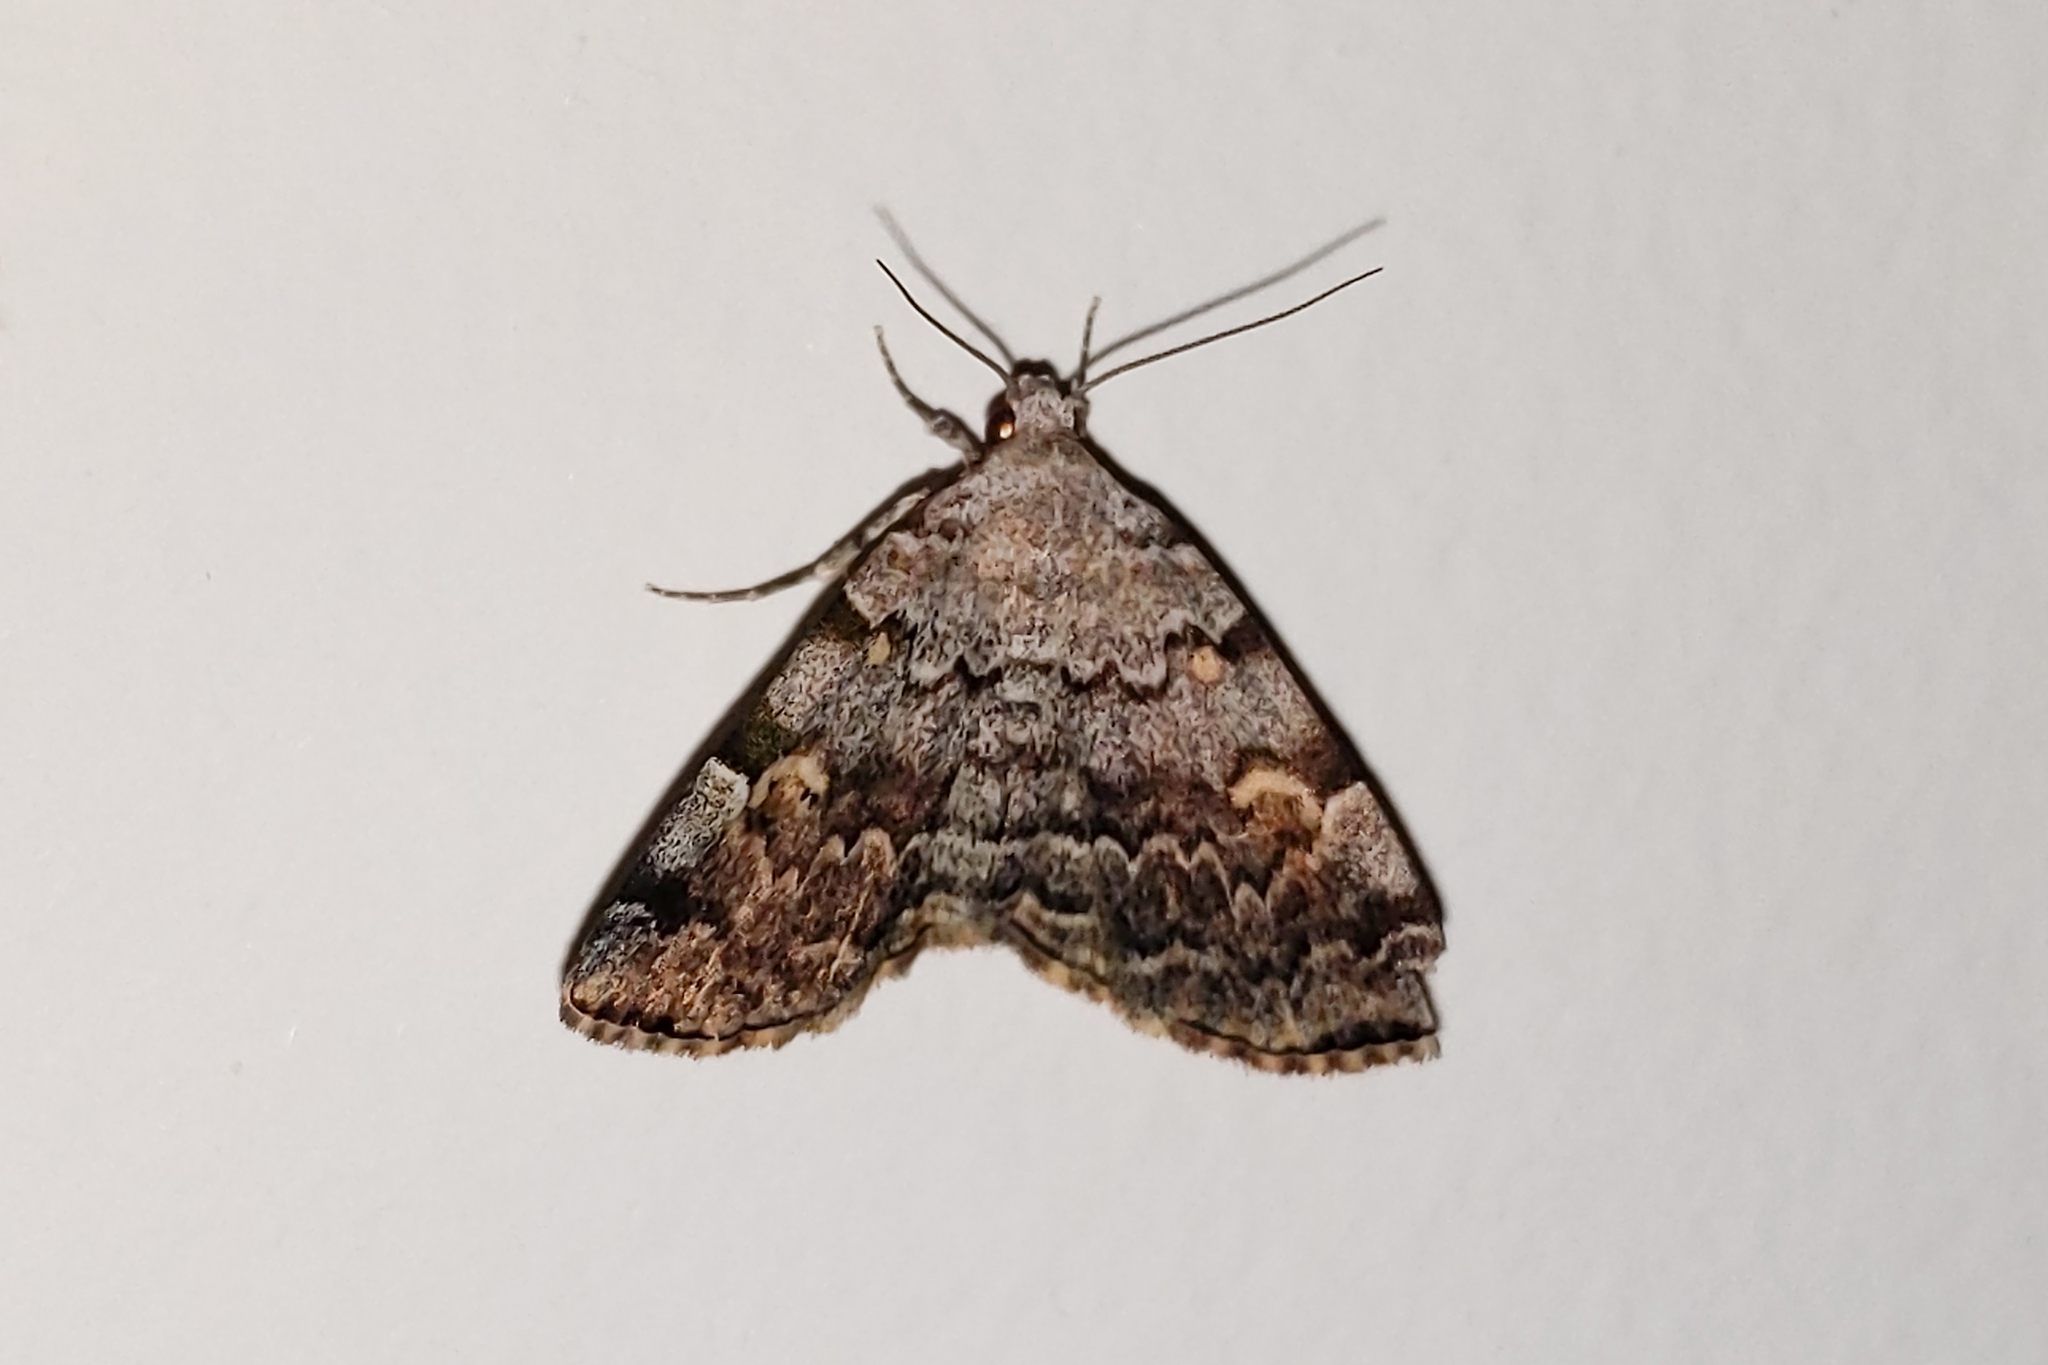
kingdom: Animalia
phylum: Arthropoda
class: Insecta
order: Lepidoptera
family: Erebidae
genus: Idia
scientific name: Idia americalis
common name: American idia moth
